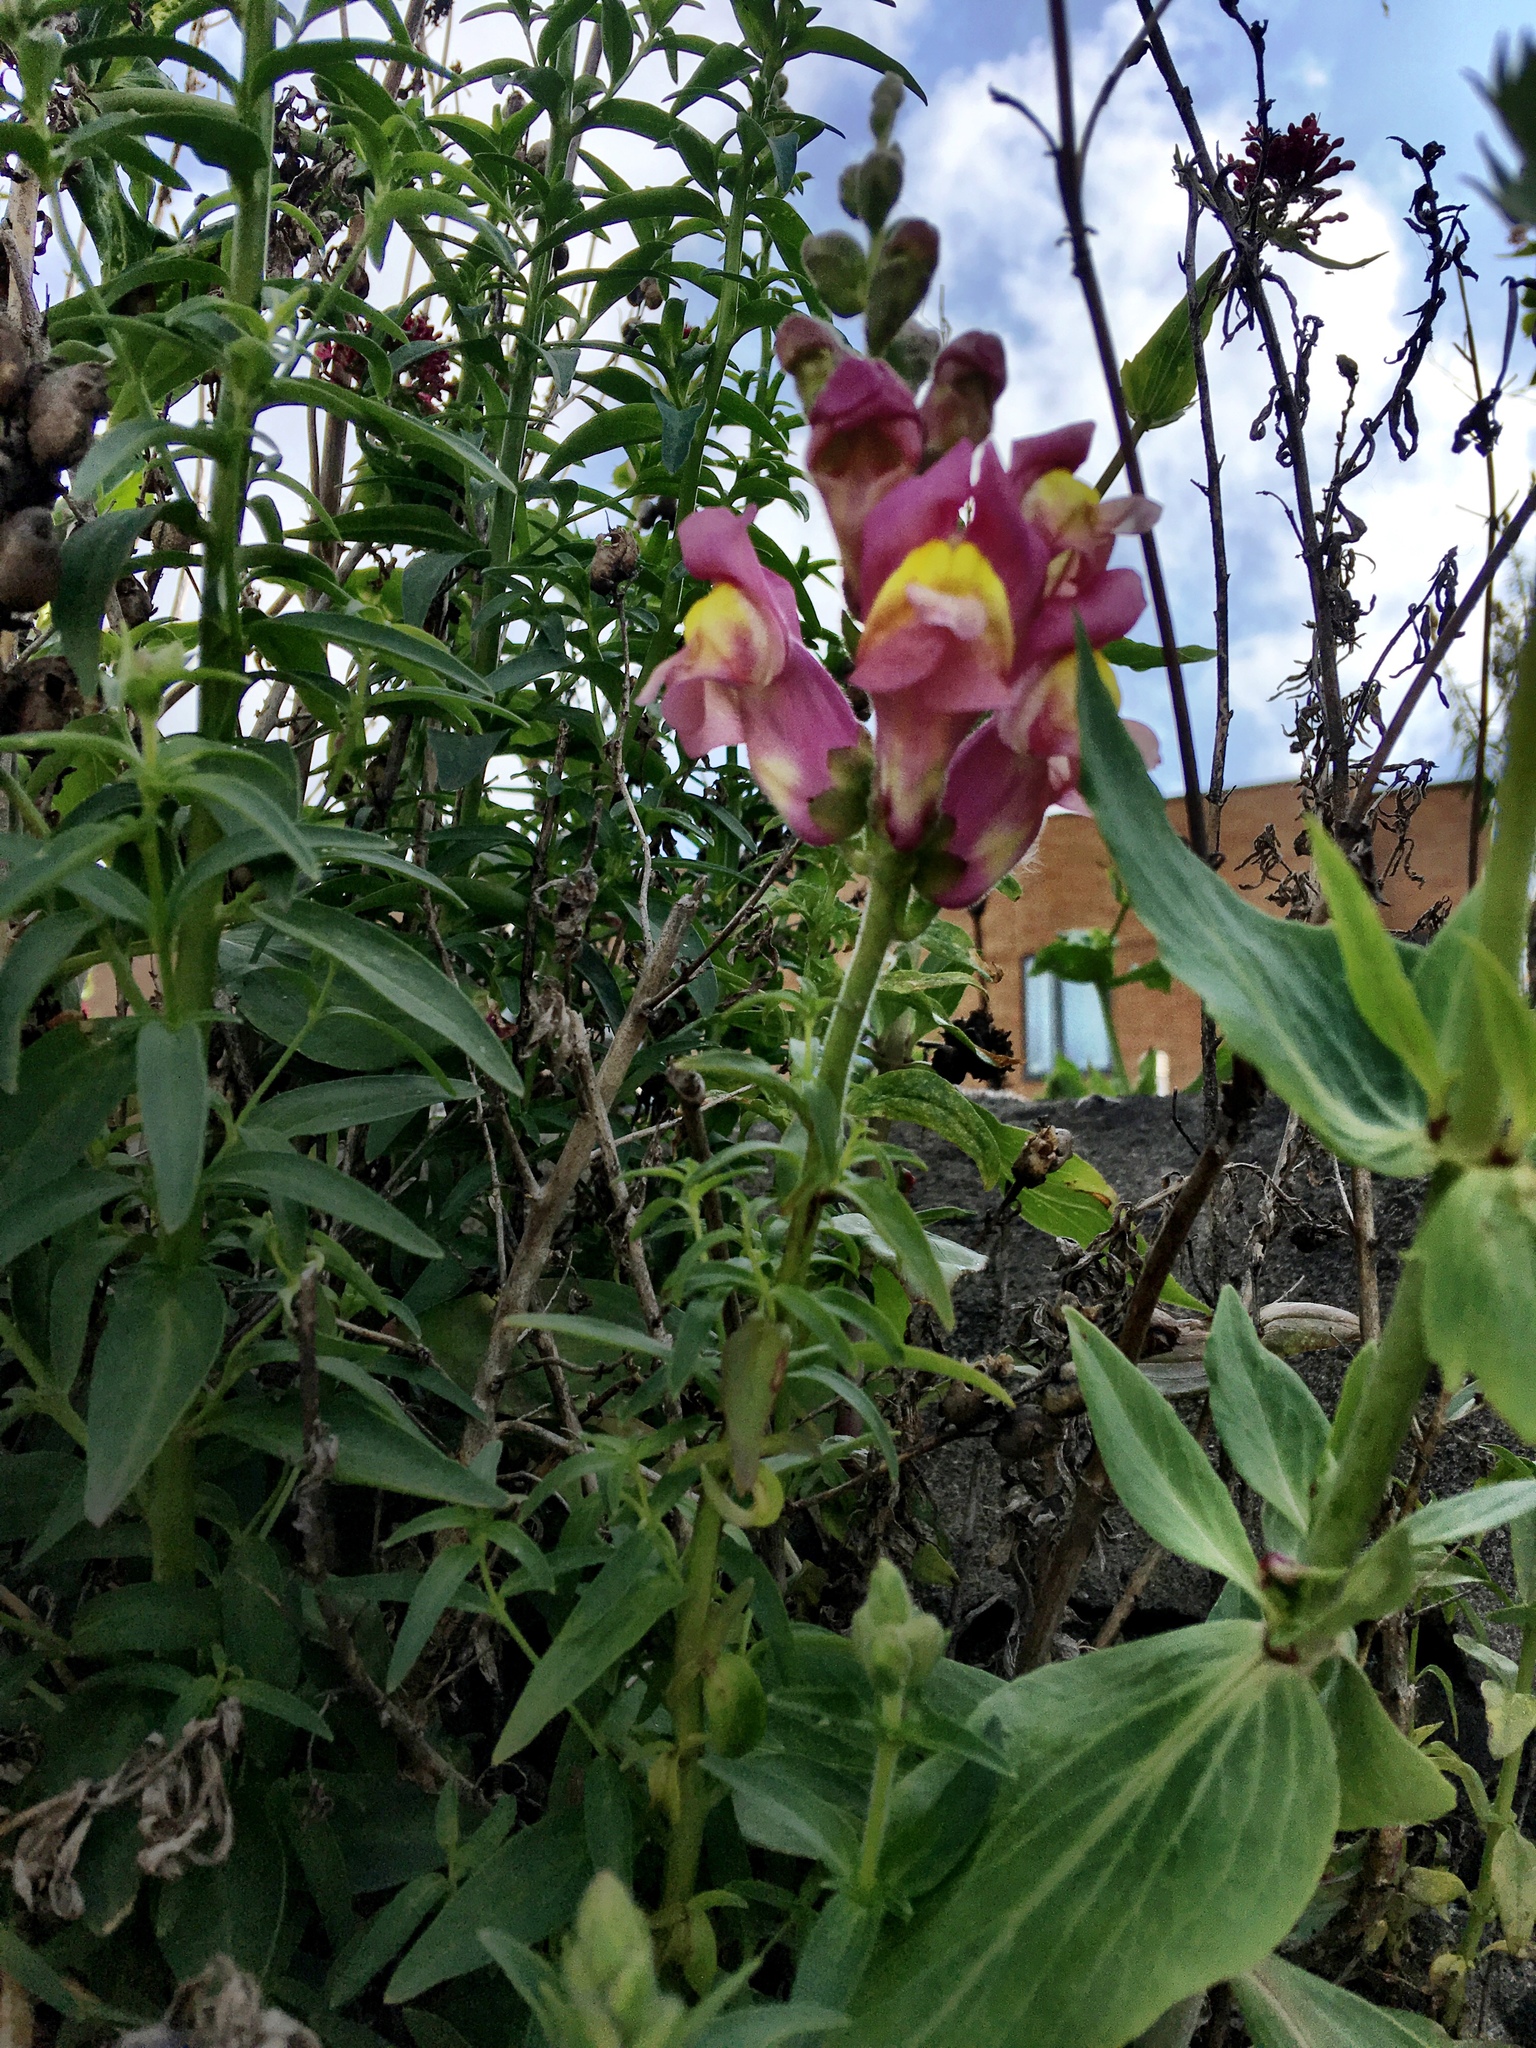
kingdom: Plantae
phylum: Tracheophyta
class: Magnoliopsida
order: Lamiales
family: Plantaginaceae
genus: Antirrhinum
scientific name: Antirrhinum majus
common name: Snapdragon
